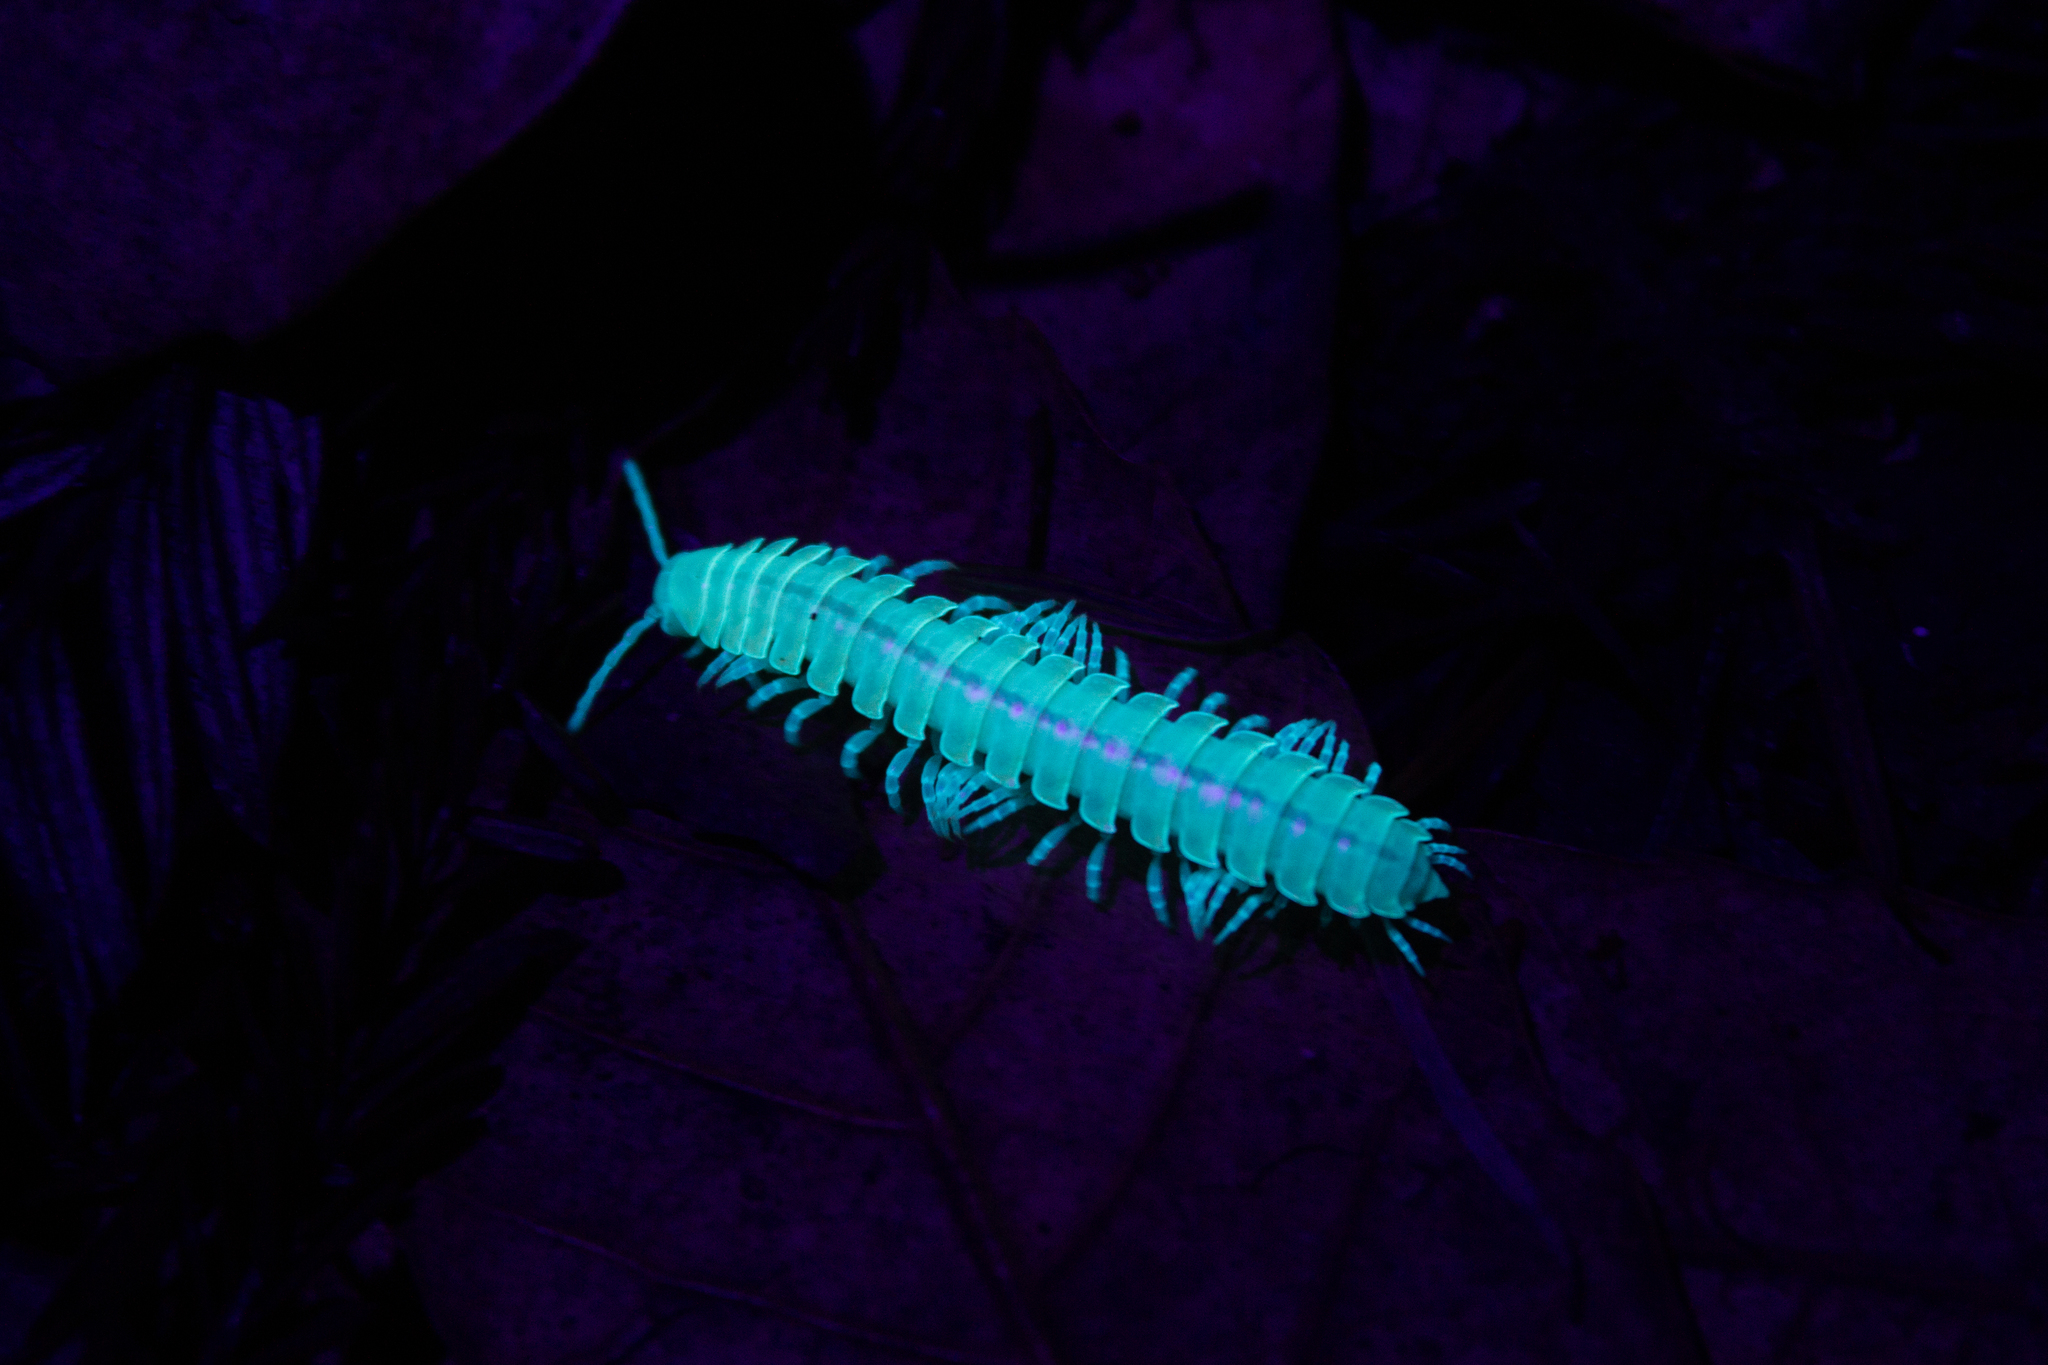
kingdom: Animalia
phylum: Arthropoda
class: Diplopoda
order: Polydesmida
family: Xystodesmidae
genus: Xystocheir
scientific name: Xystocheir dissecta
